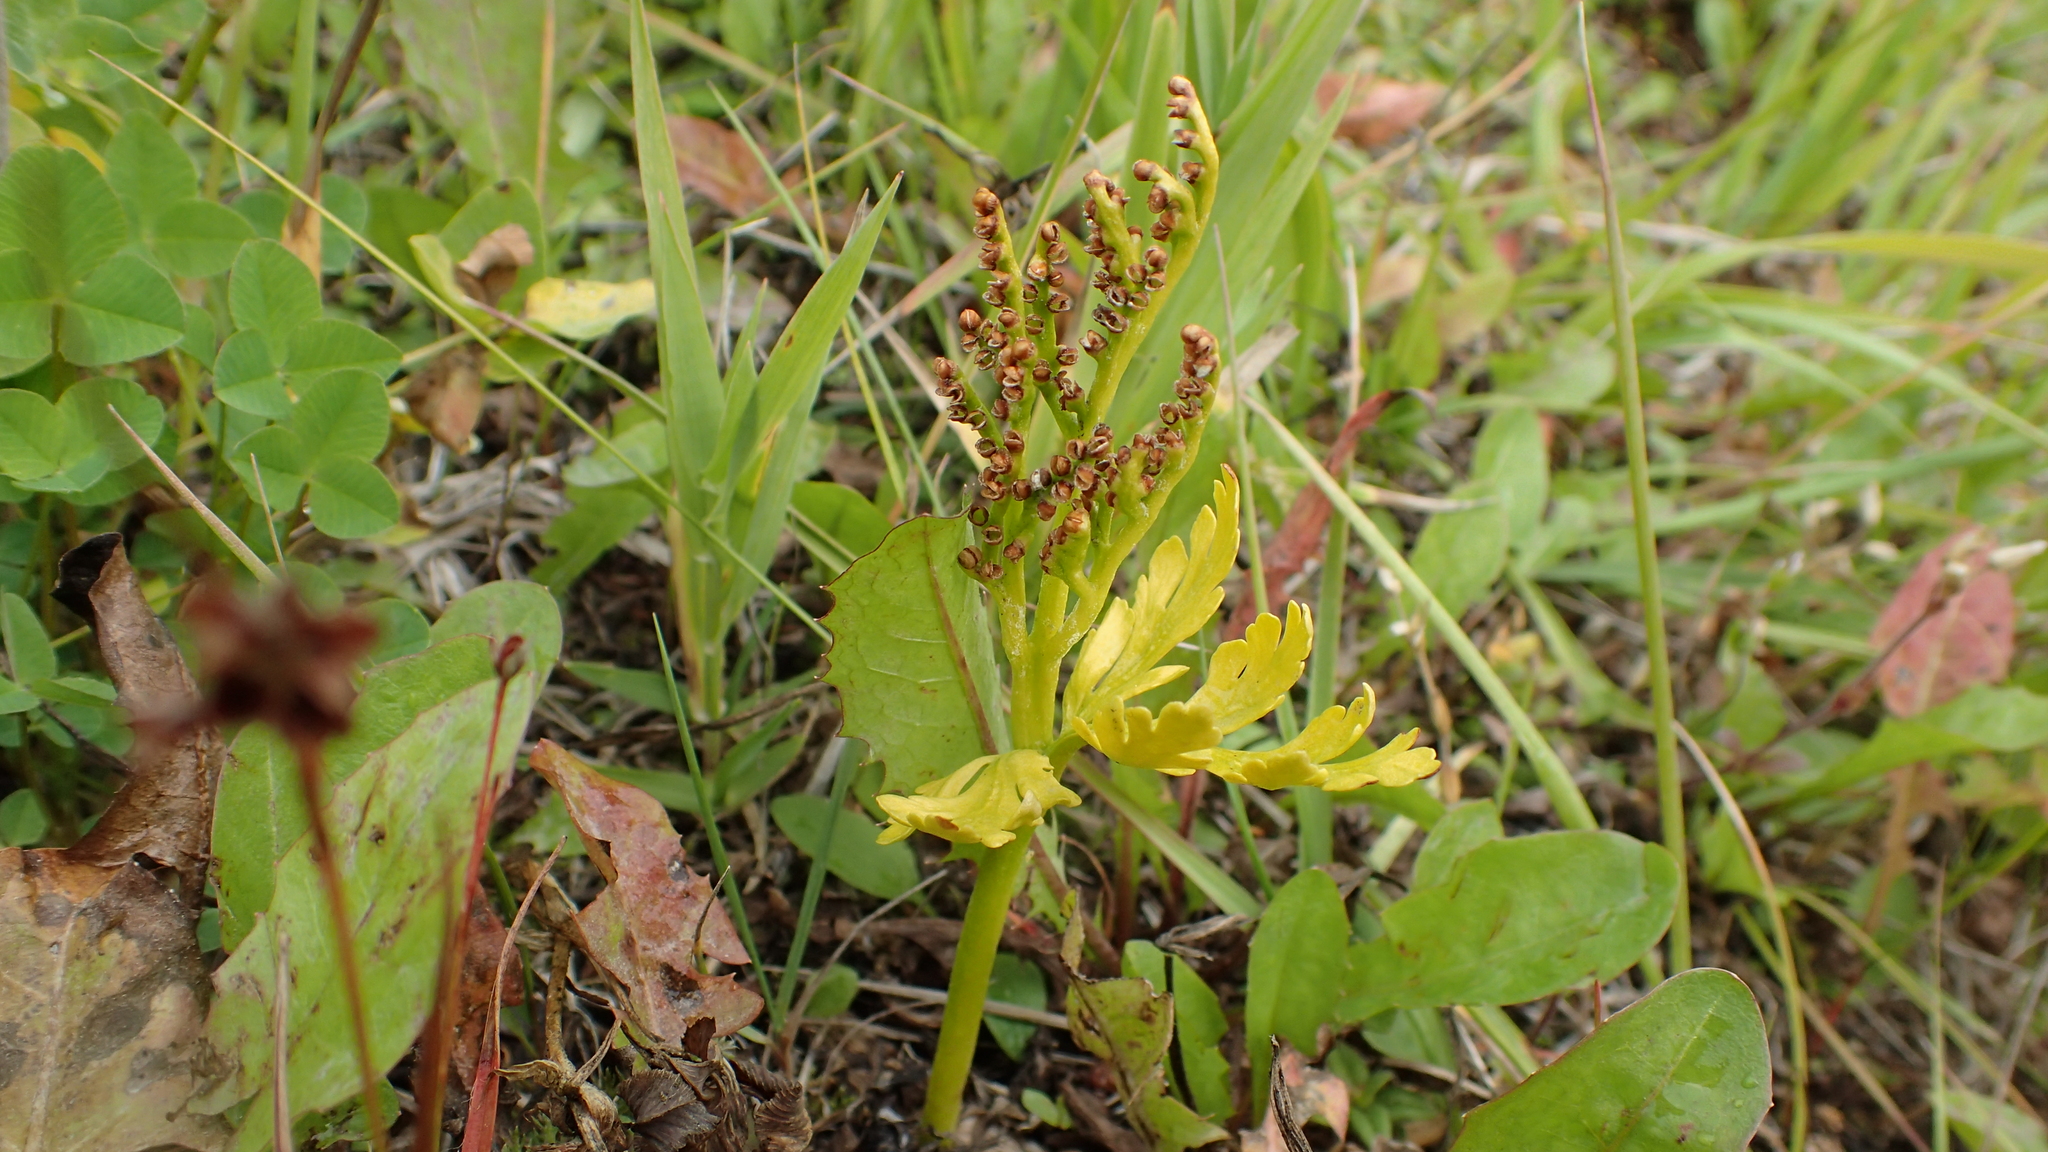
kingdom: Plantae
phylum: Tracheophyta
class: Polypodiopsida
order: Ophioglossales
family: Ophioglossaceae
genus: Botrychium
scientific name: Botrychium lanceolatum
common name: Lance-leaved moonwort
